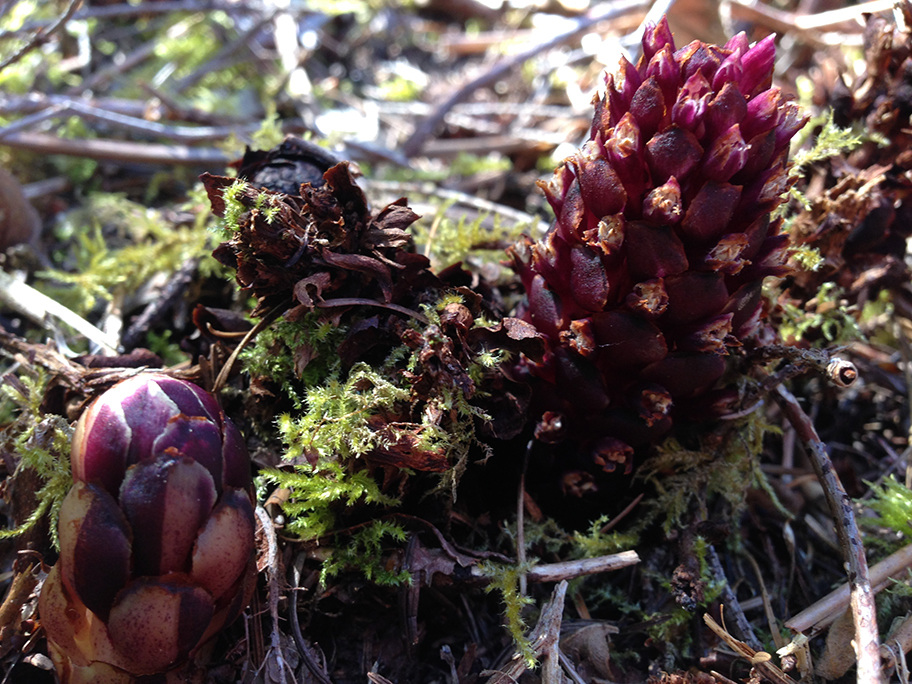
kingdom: Plantae
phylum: Tracheophyta
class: Magnoliopsida
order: Lamiales
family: Orobanchaceae
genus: Kopsiopsis
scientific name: Kopsiopsis hookeri
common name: Hooker's groundcone
